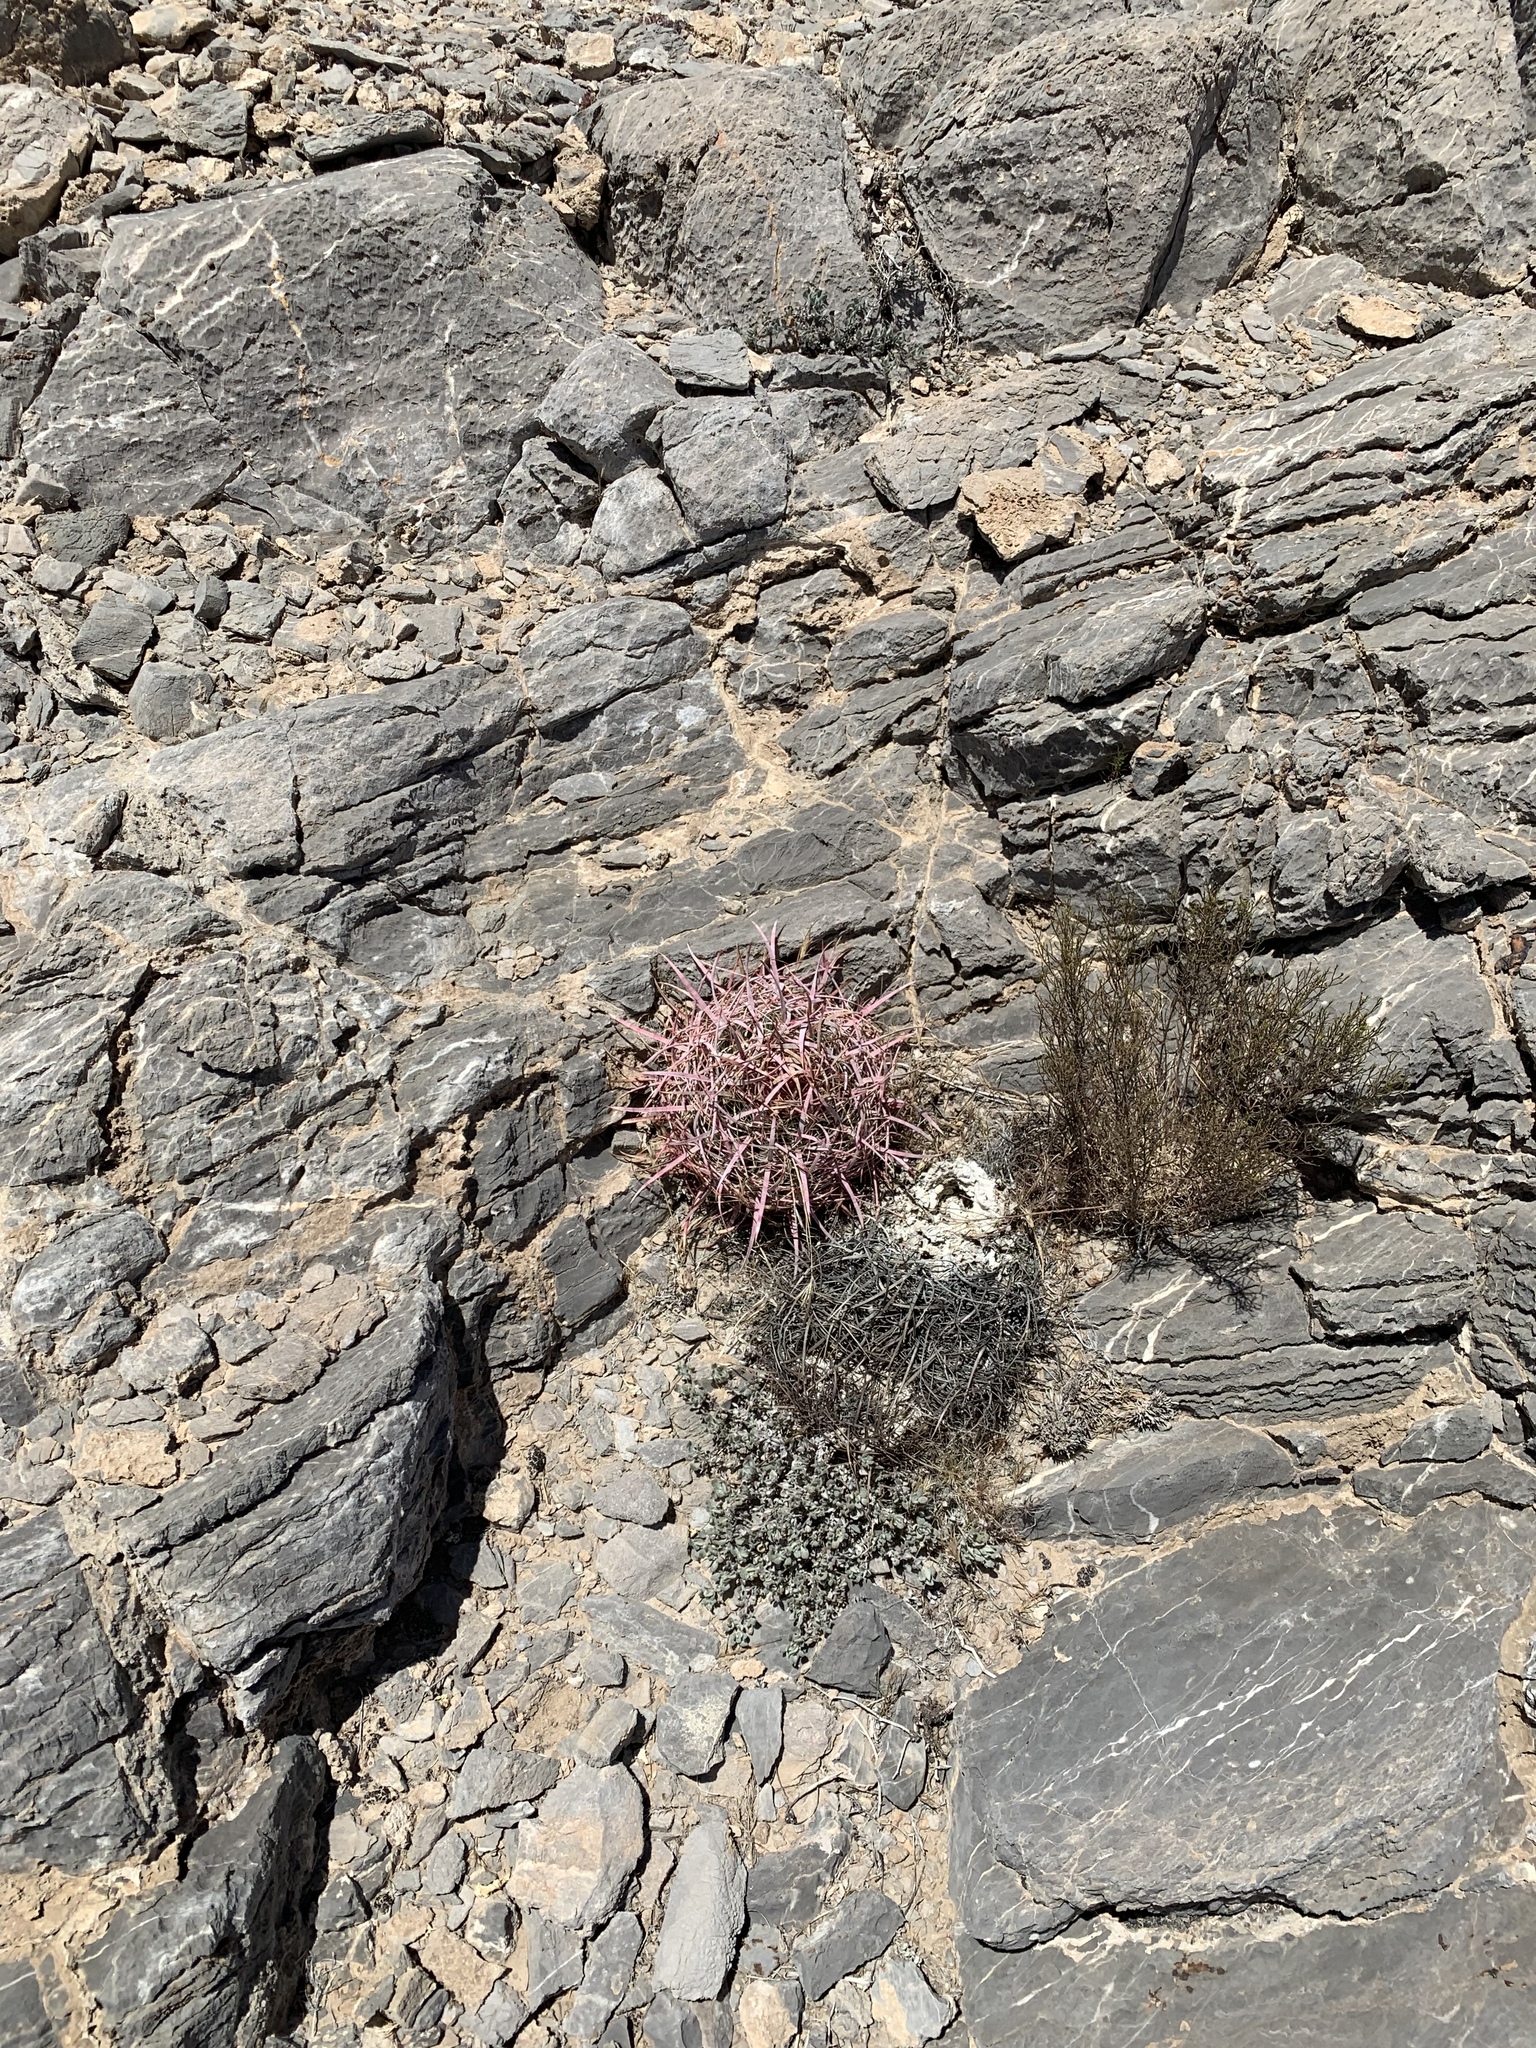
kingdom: Plantae
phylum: Tracheophyta
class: Magnoliopsida
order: Caryophyllales
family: Cactaceae
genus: Ferocactus
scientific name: Ferocactus cylindraceus
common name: California barrel cactus
